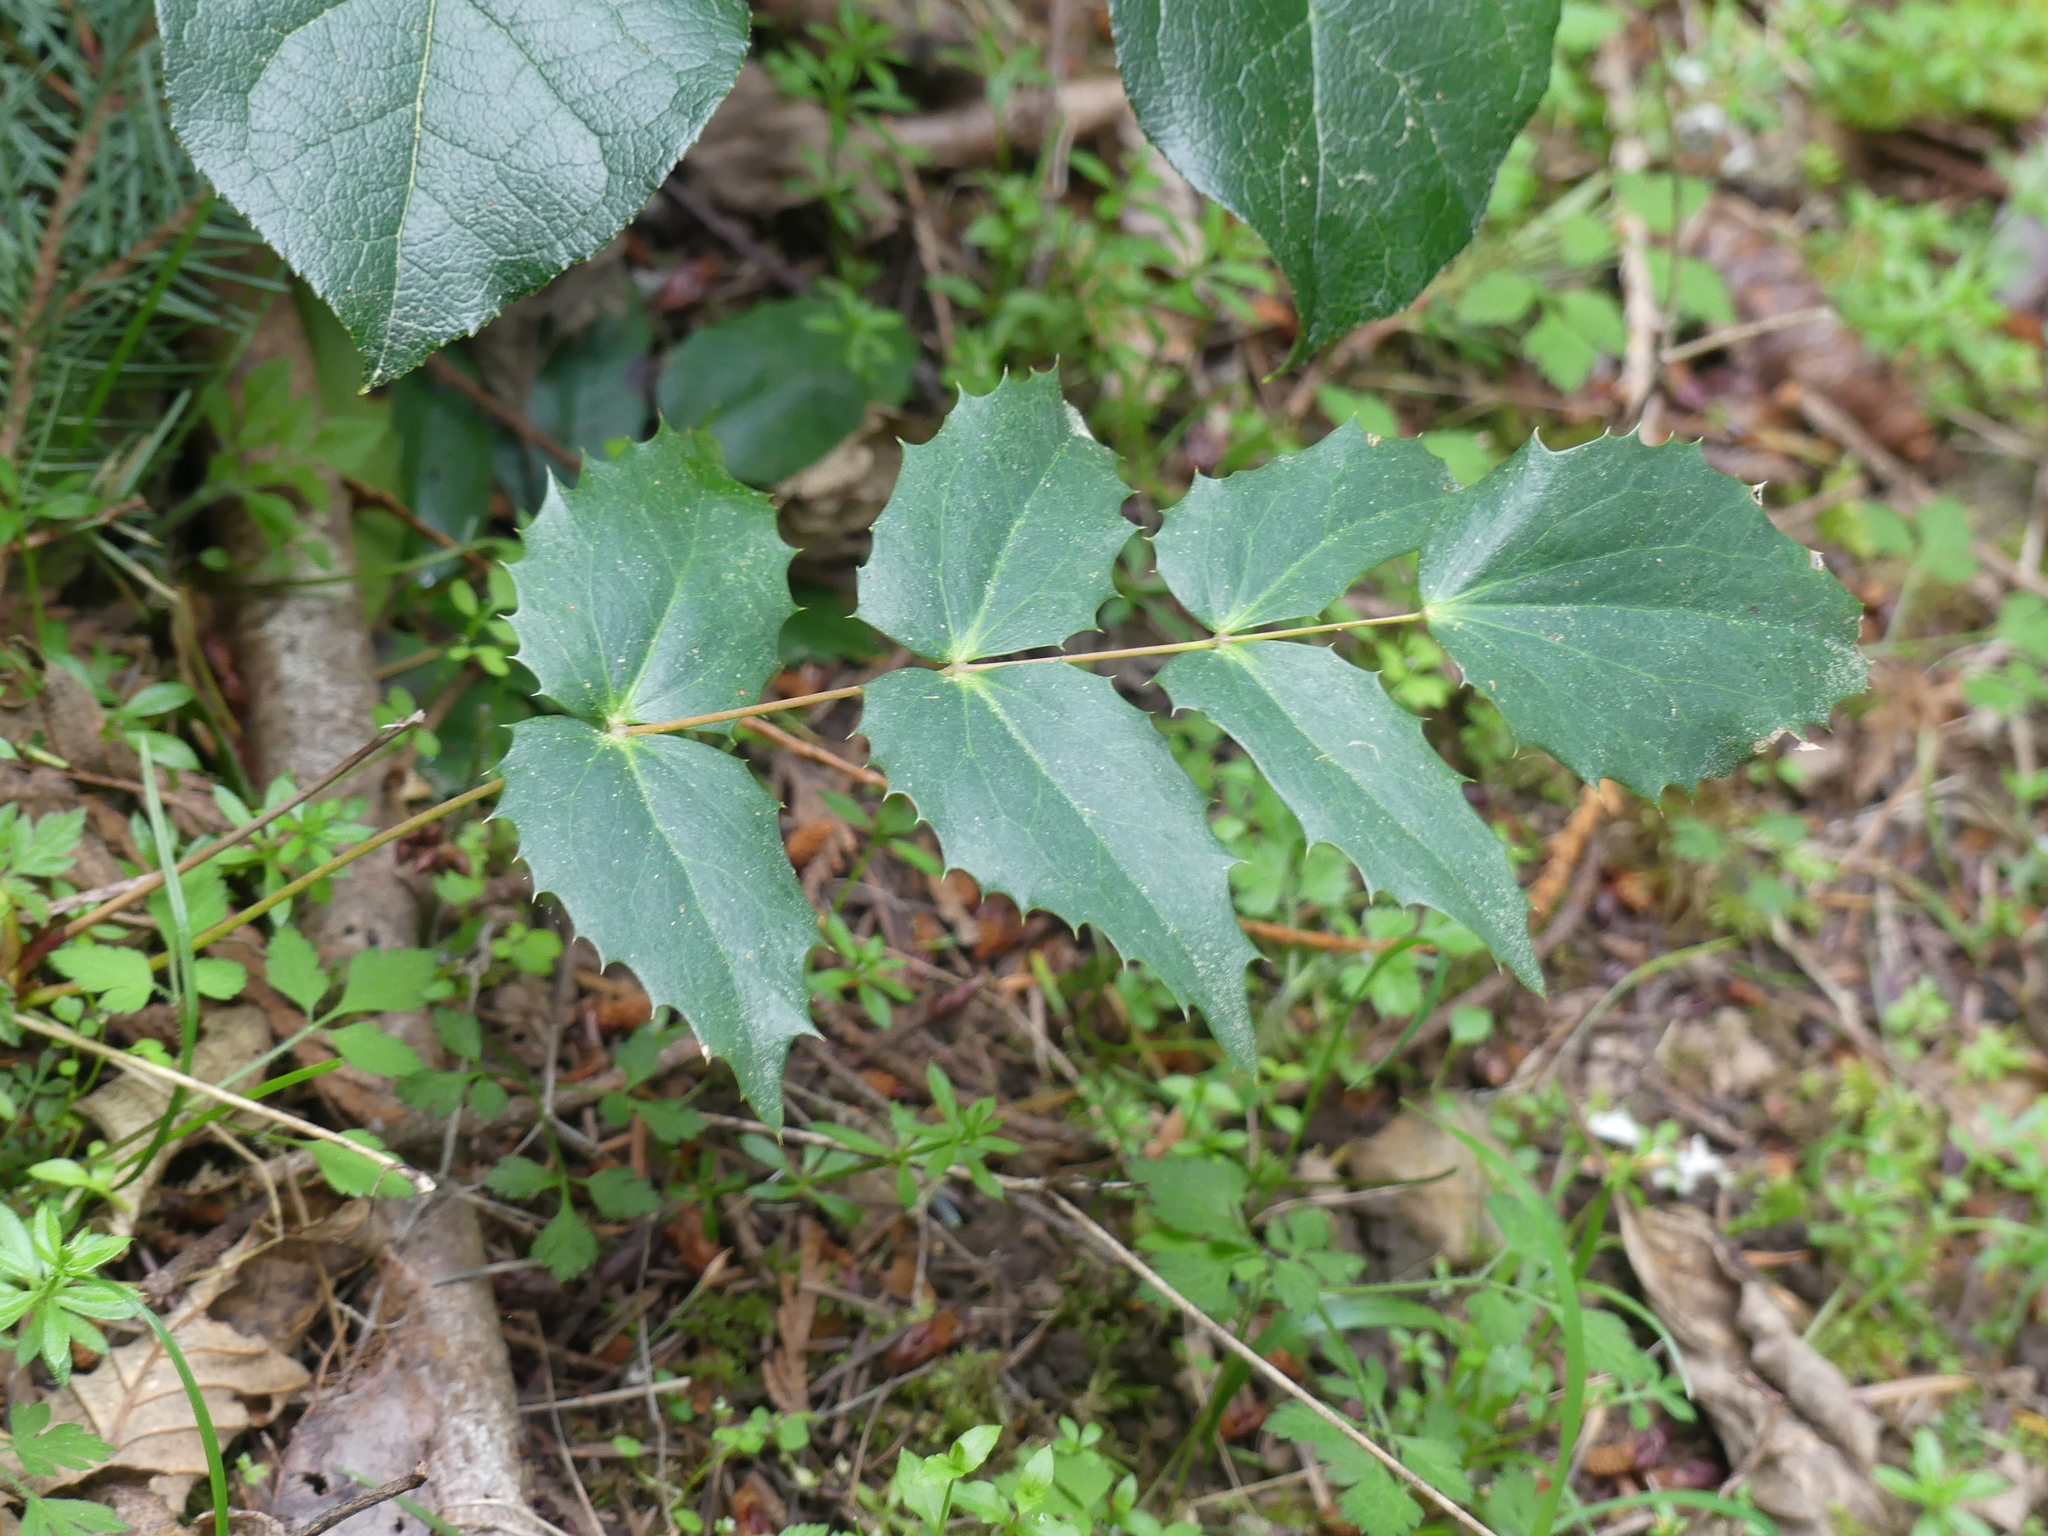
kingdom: Plantae
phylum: Tracheophyta
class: Magnoliopsida
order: Ranunculales
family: Berberidaceae
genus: Mahonia
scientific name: Mahonia nervosa
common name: Cascade oregon-grape
